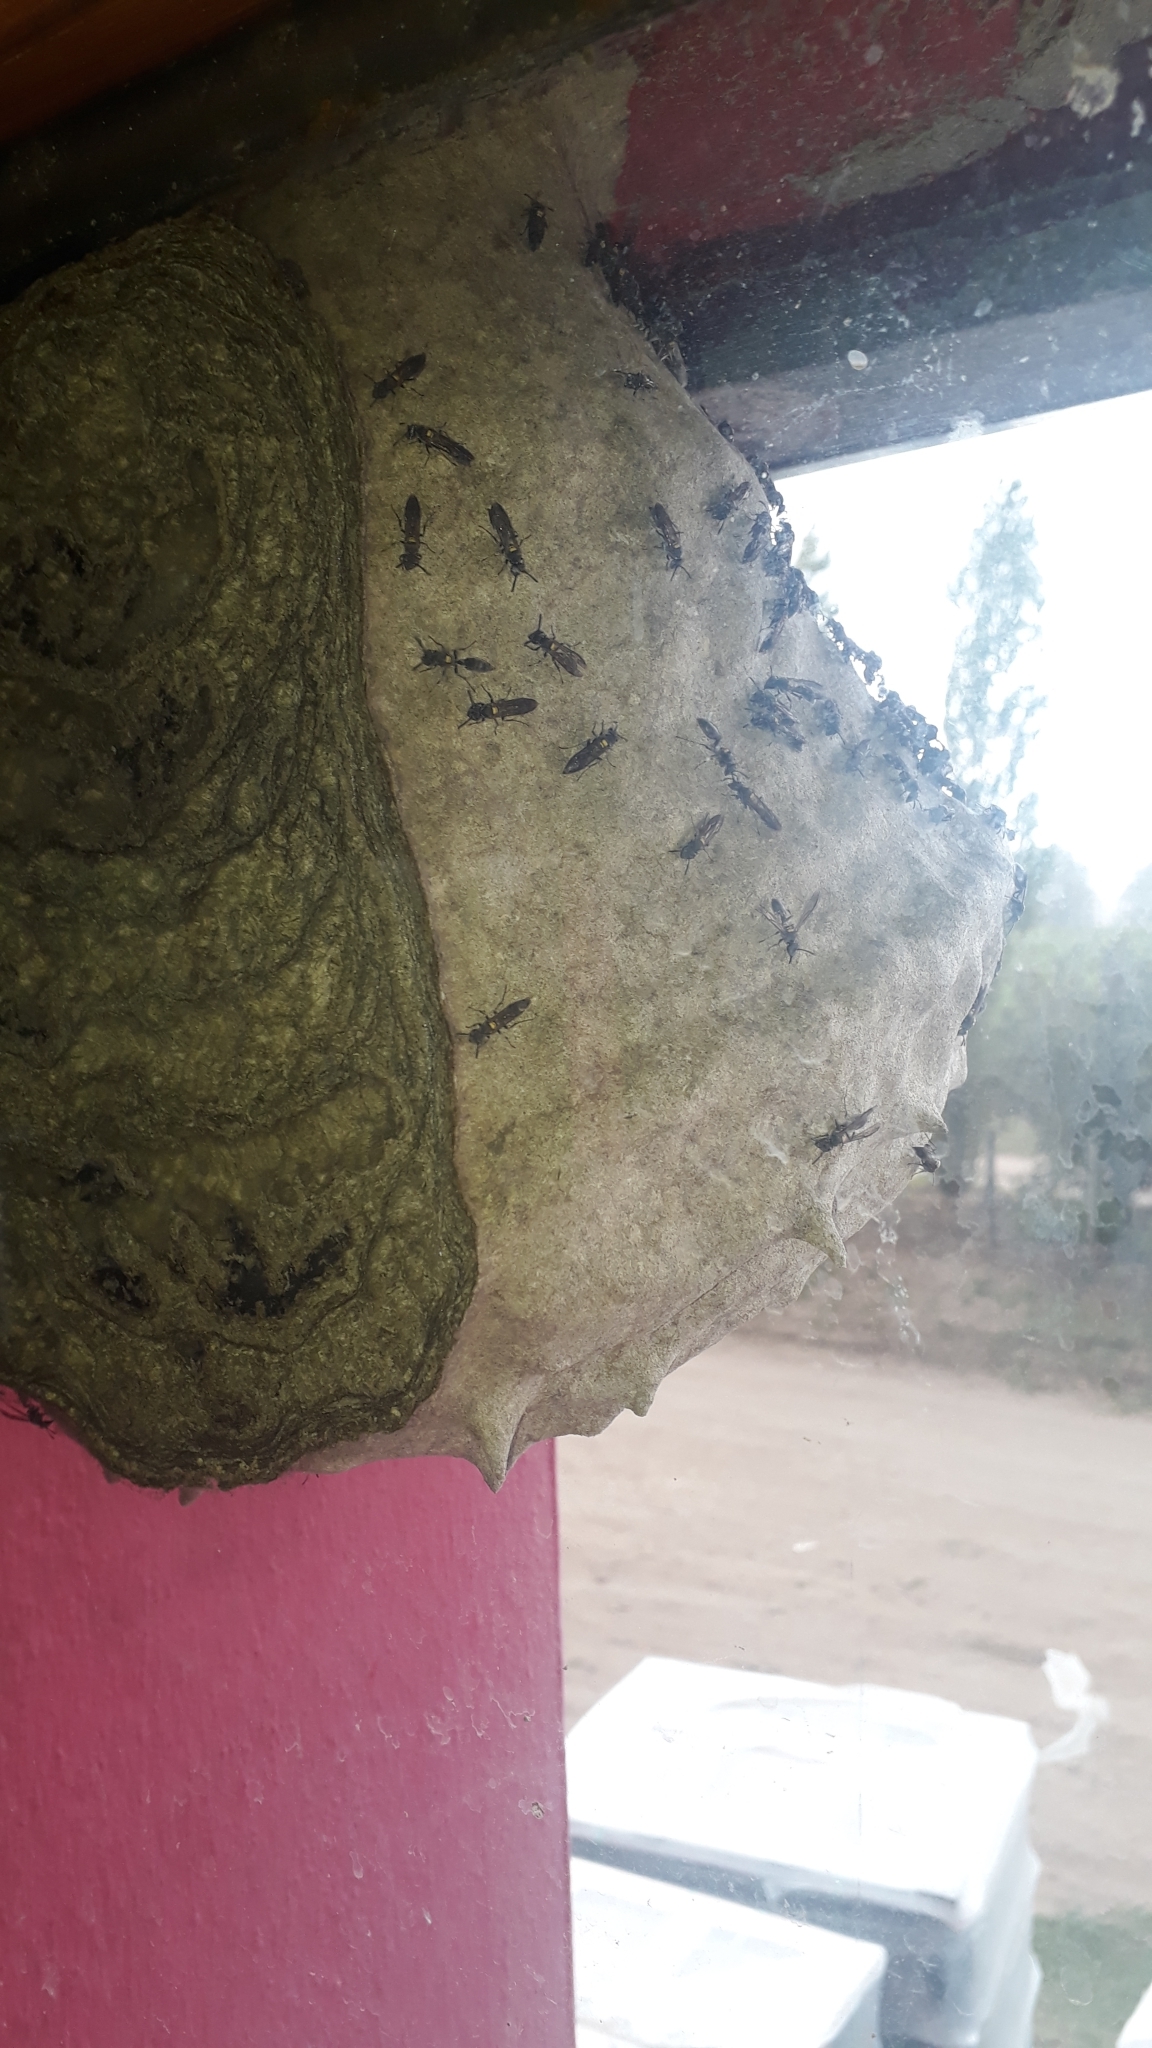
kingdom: Animalia
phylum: Arthropoda
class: Insecta
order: Hymenoptera
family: Eumenidae
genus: Polybia
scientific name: Polybia scutellaris
